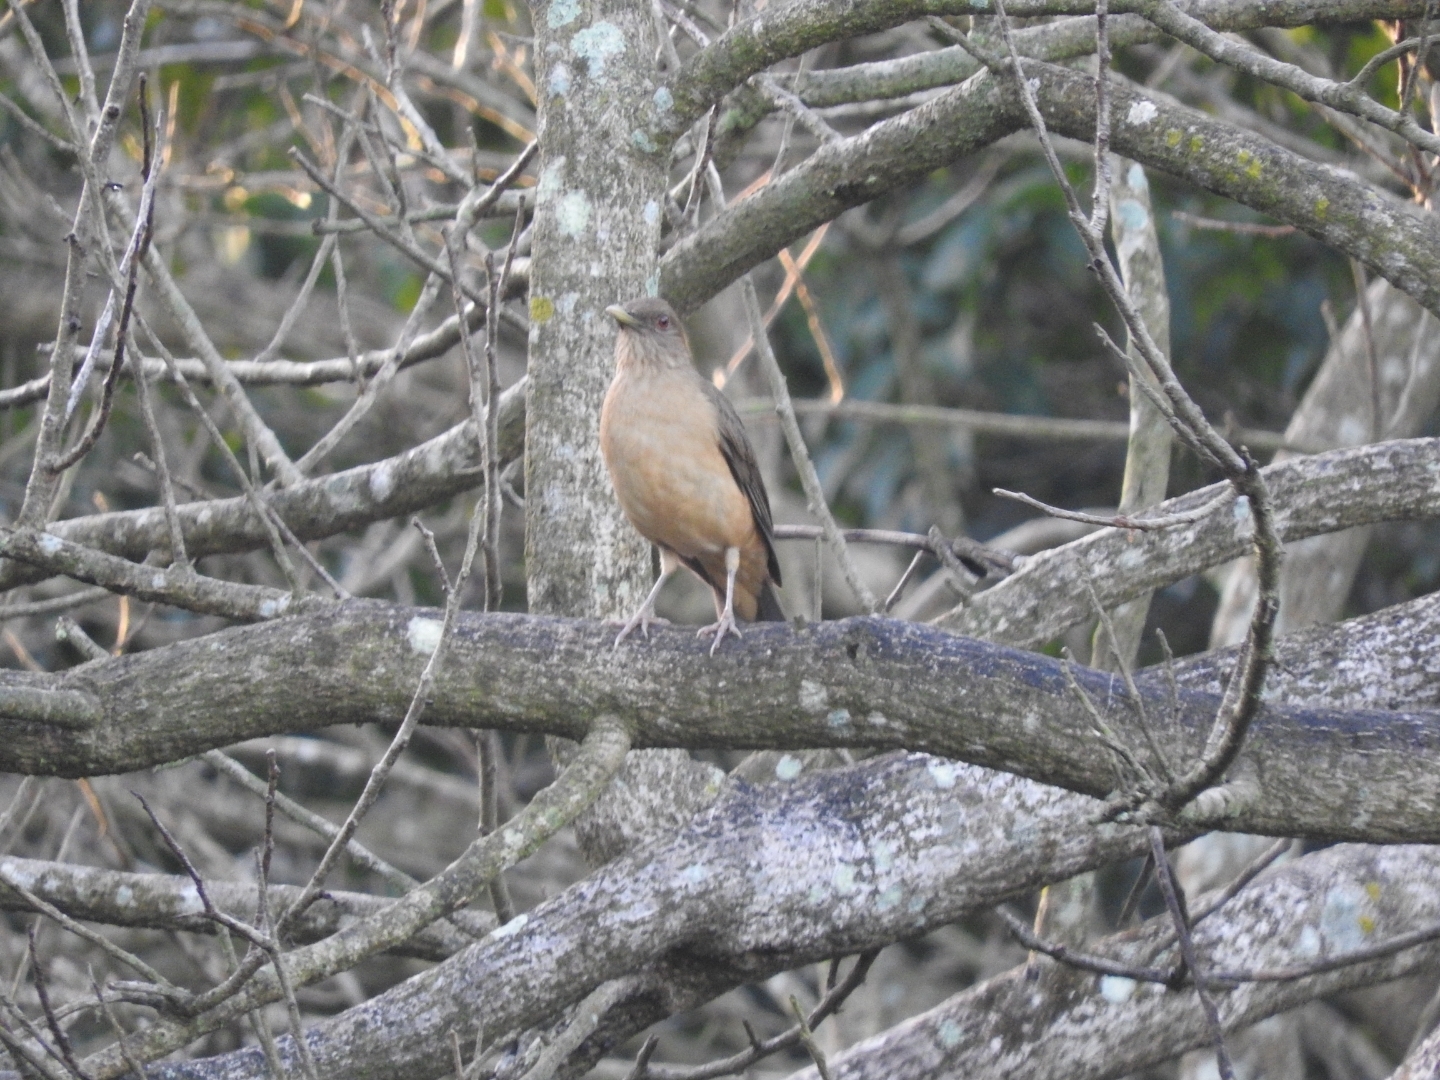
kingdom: Animalia
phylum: Chordata
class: Aves
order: Passeriformes
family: Turdidae
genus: Turdus
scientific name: Turdus grayi
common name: Clay-colored thrush
